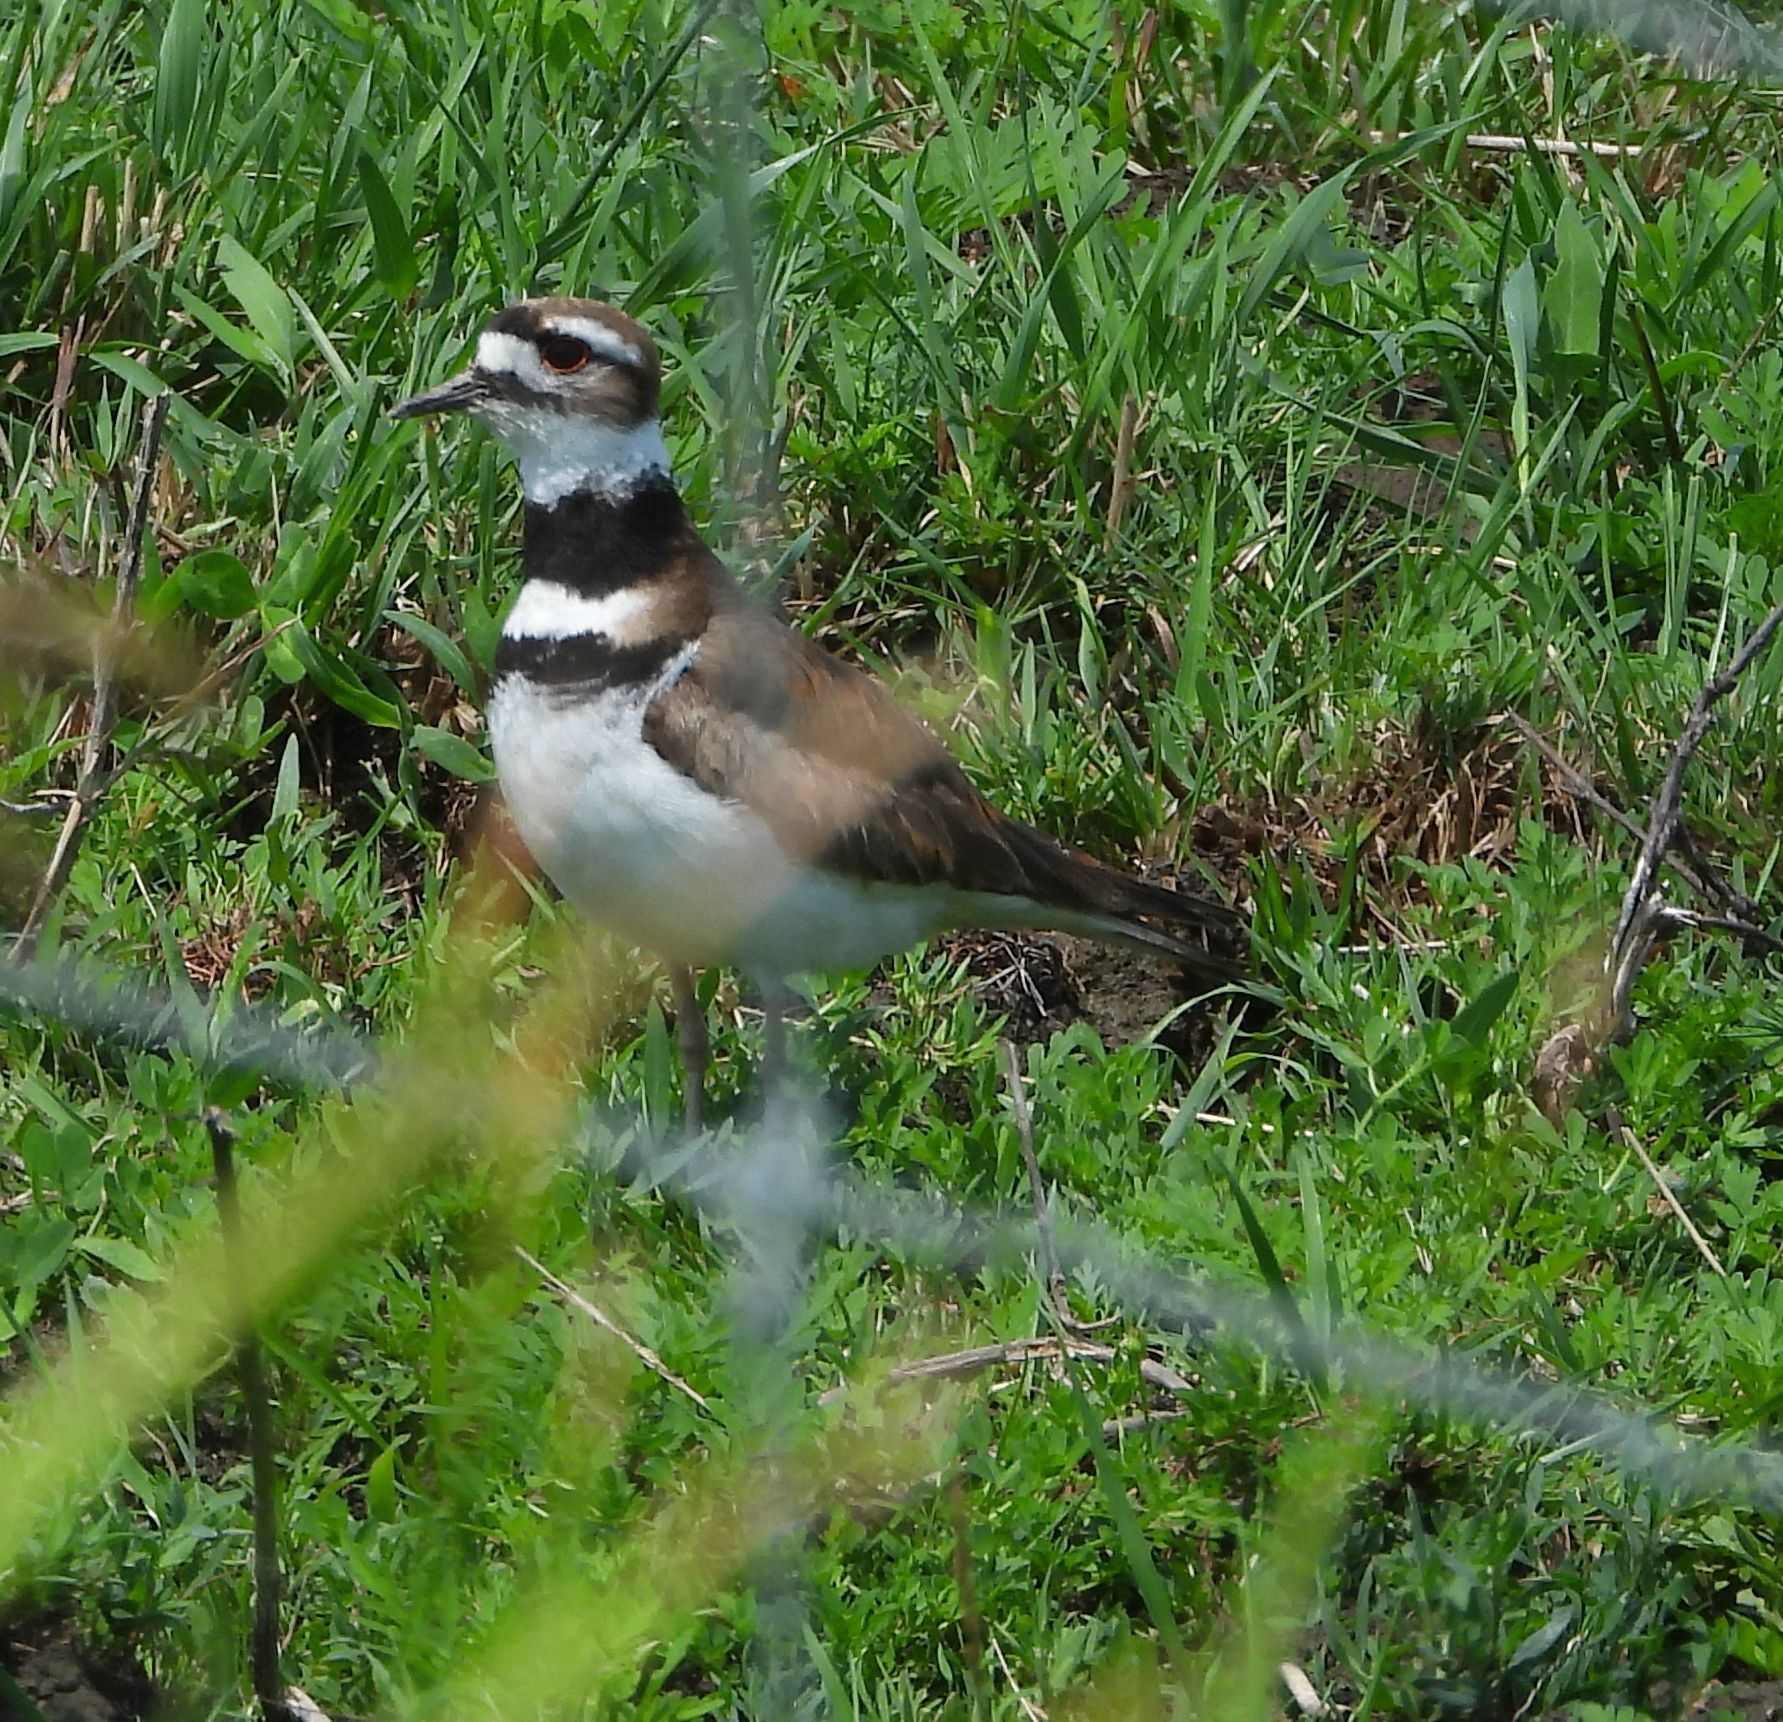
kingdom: Animalia
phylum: Chordata
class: Aves
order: Charadriiformes
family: Charadriidae
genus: Charadrius
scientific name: Charadrius vociferus
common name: Killdeer
